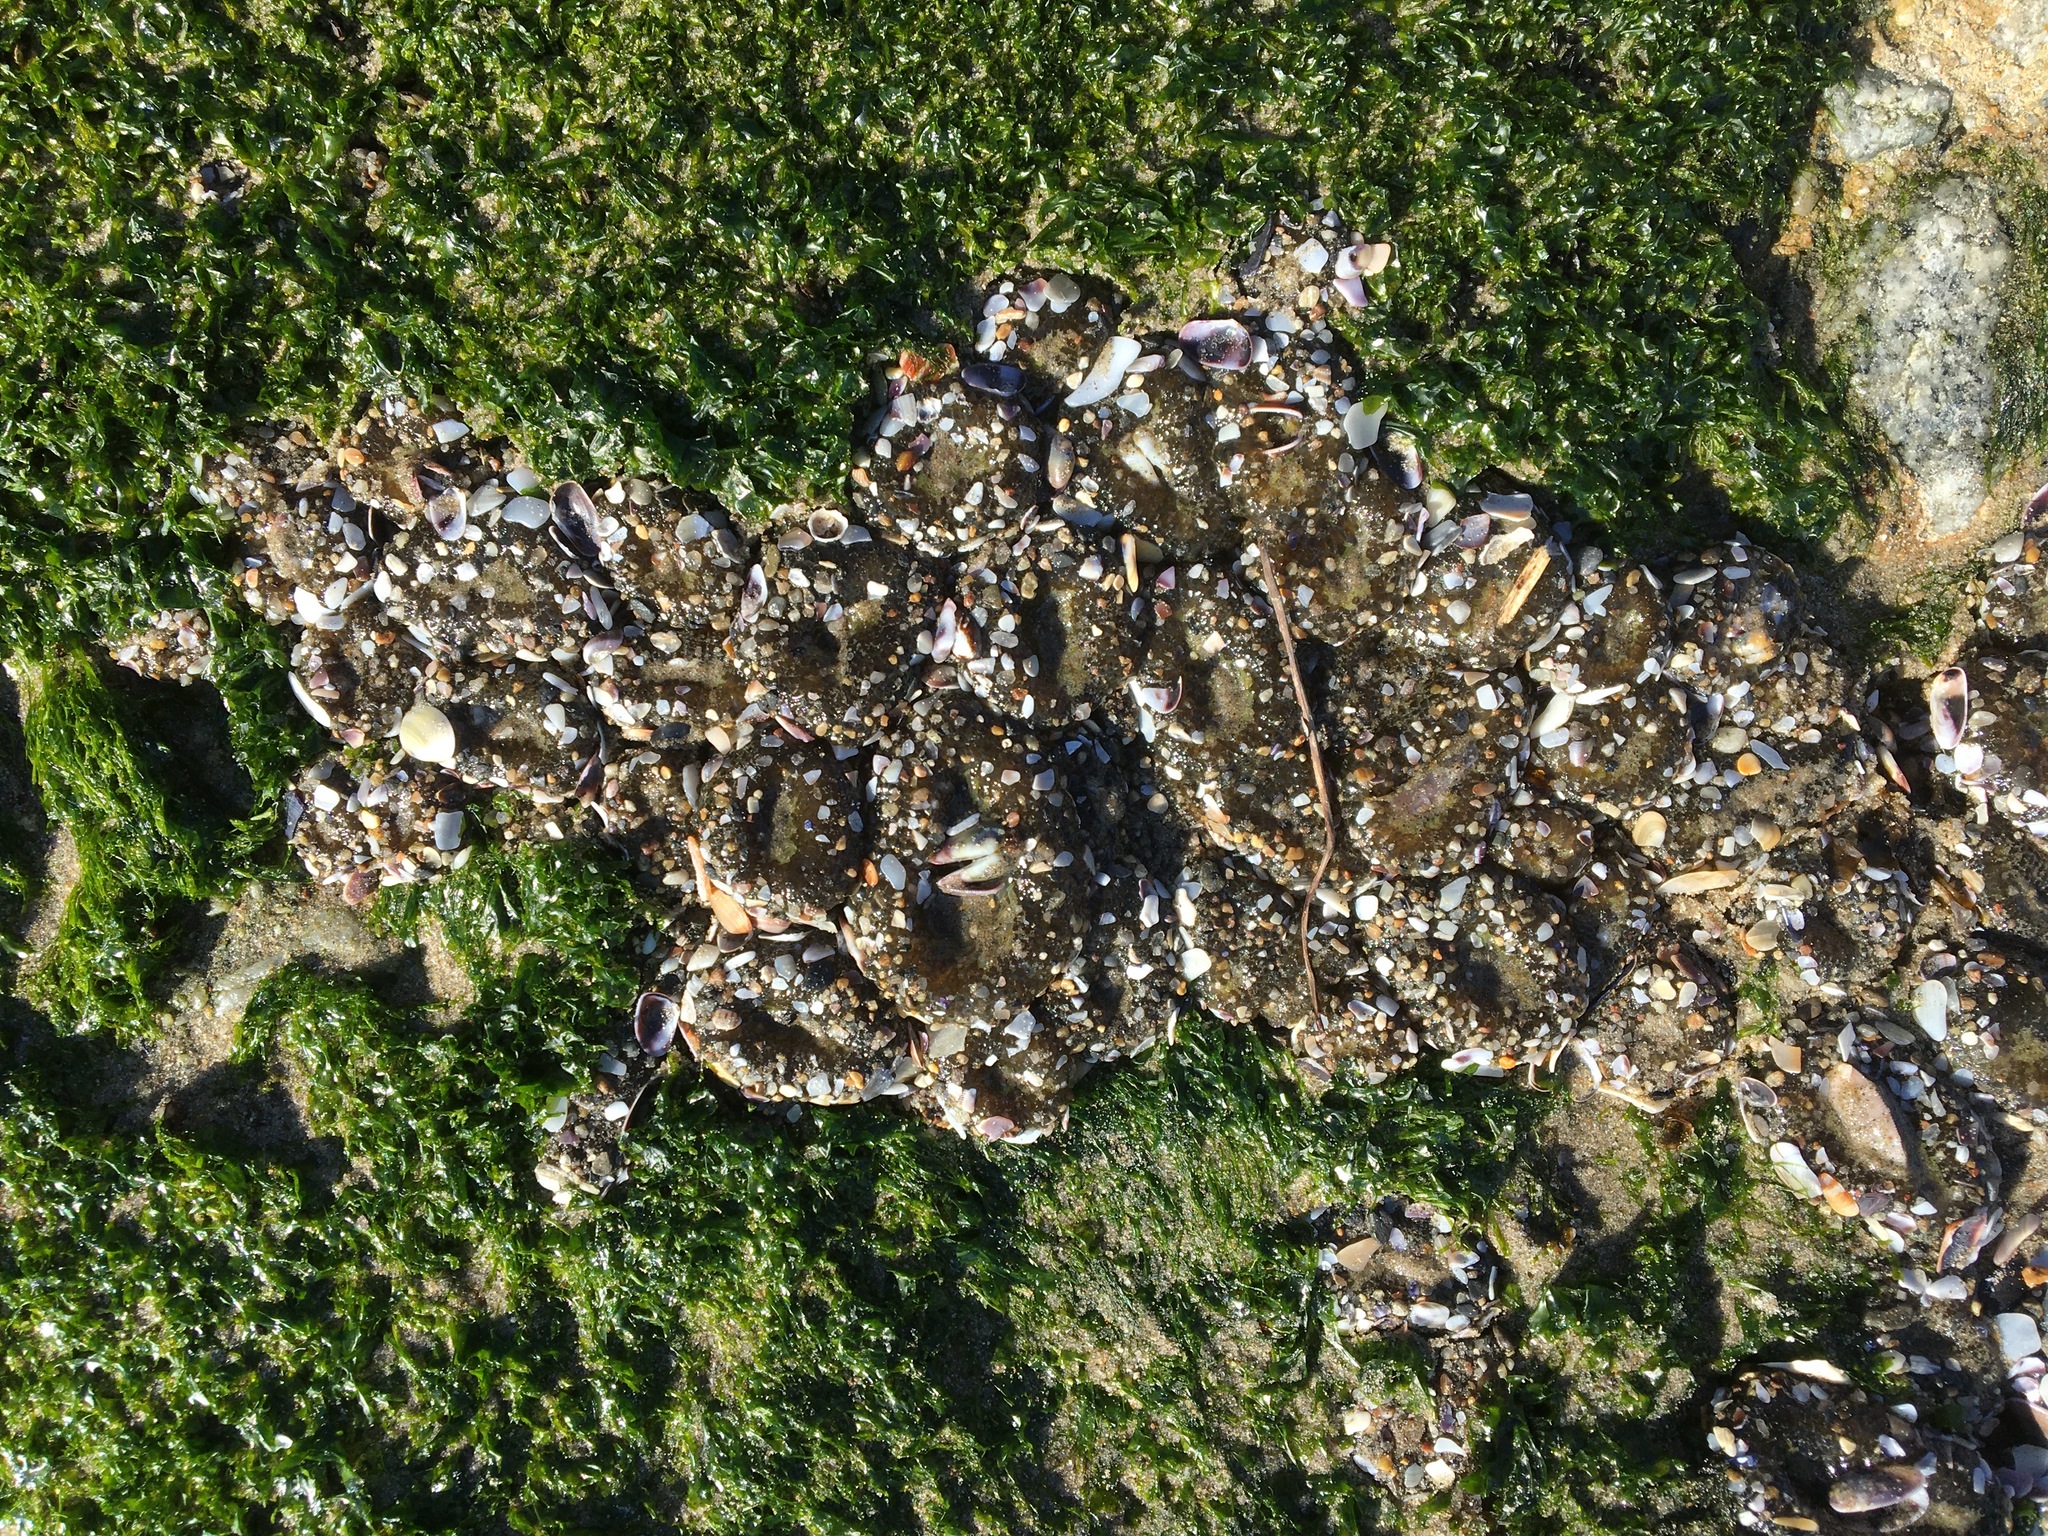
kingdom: Animalia
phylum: Cnidaria
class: Anthozoa
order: Actiniaria
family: Actiniidae
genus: Anthopleura
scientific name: Anthopleura elegantissima
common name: Clonal anemone
